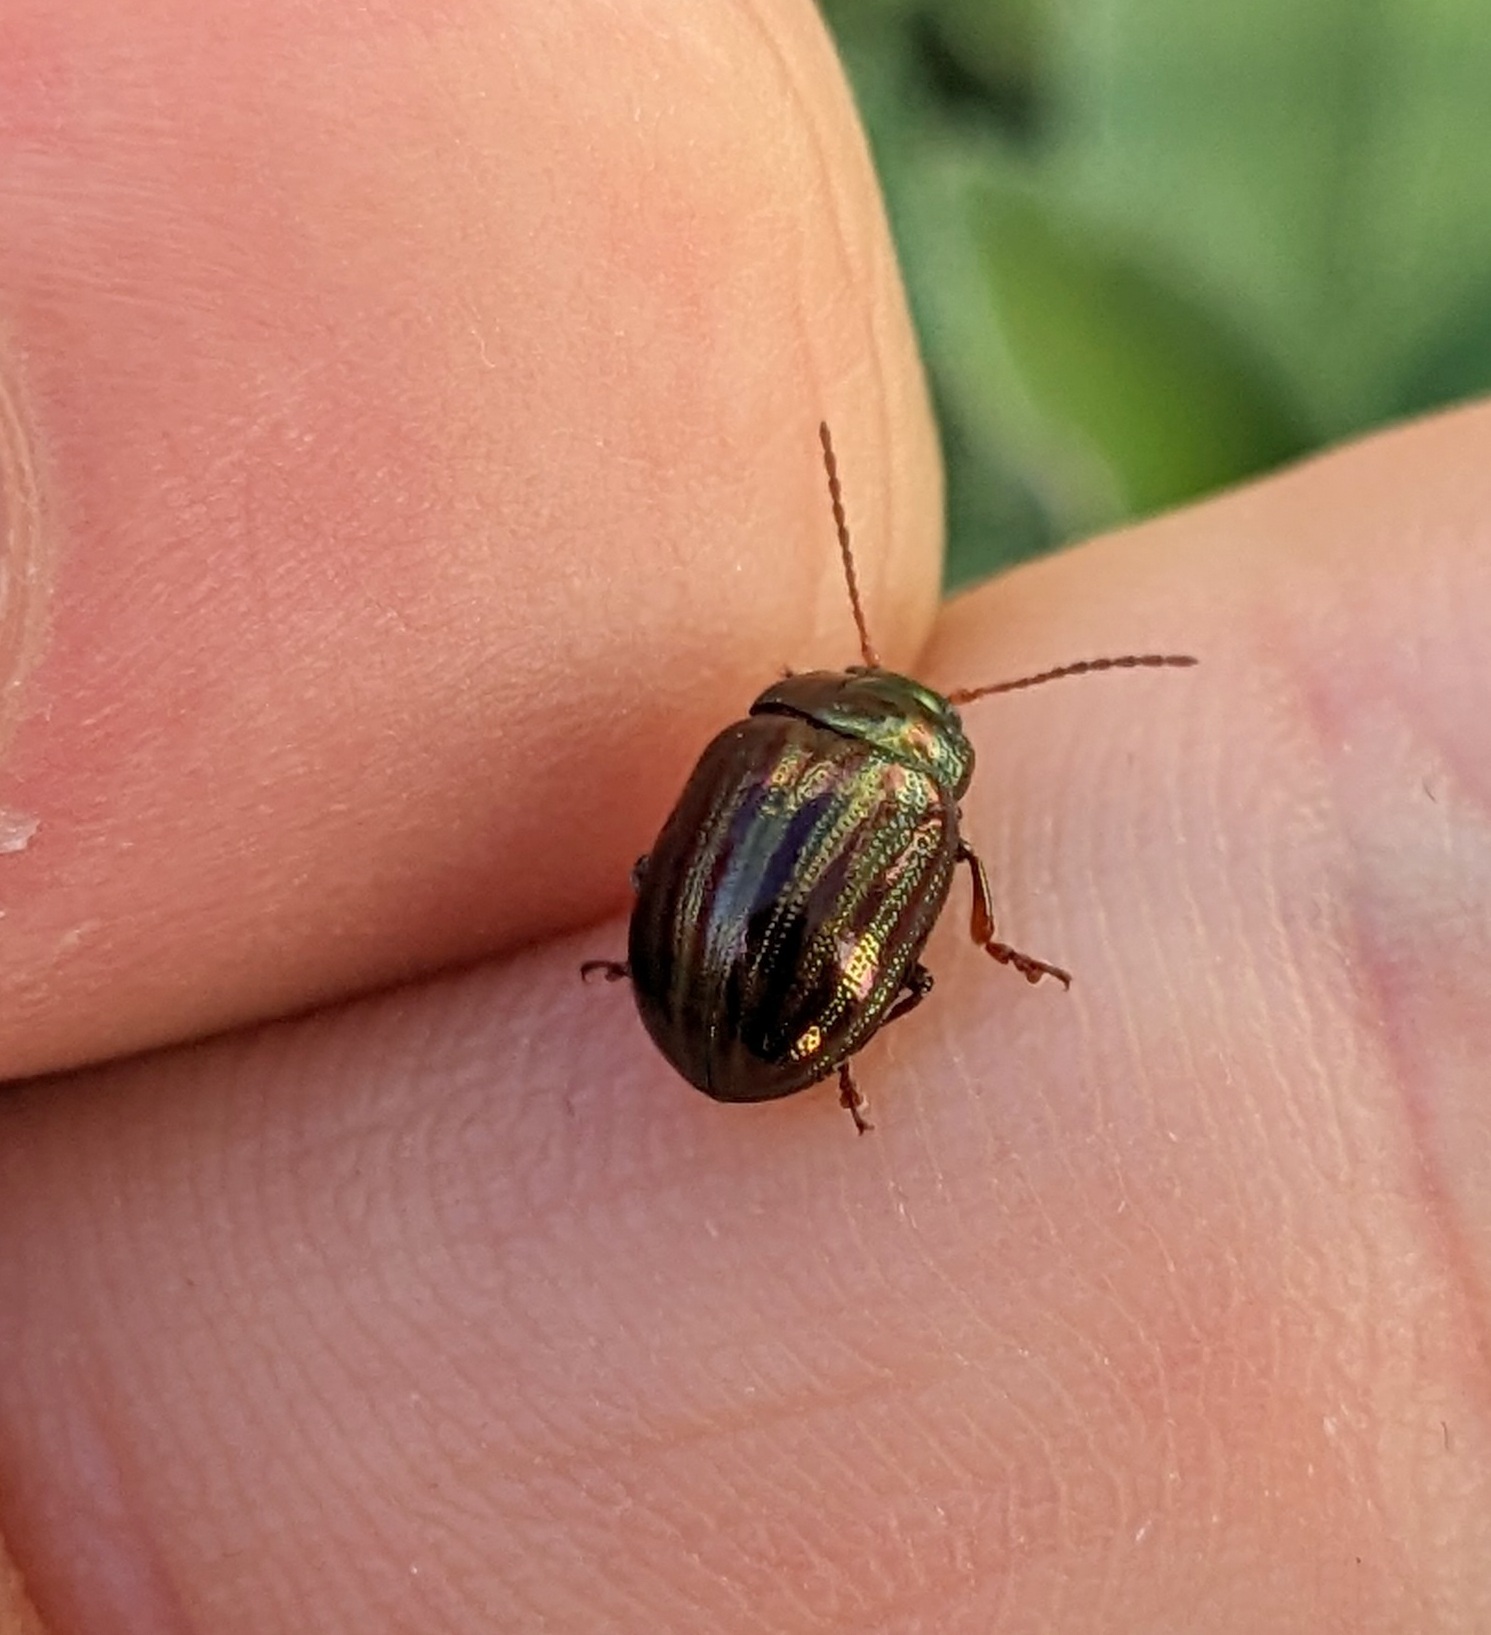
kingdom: Animalia
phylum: Arthropoda
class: Insecta
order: Coleoptera
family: Chrysomelidae
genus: Chrysolina
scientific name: Chrysolina americana
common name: Rosemary beetle
